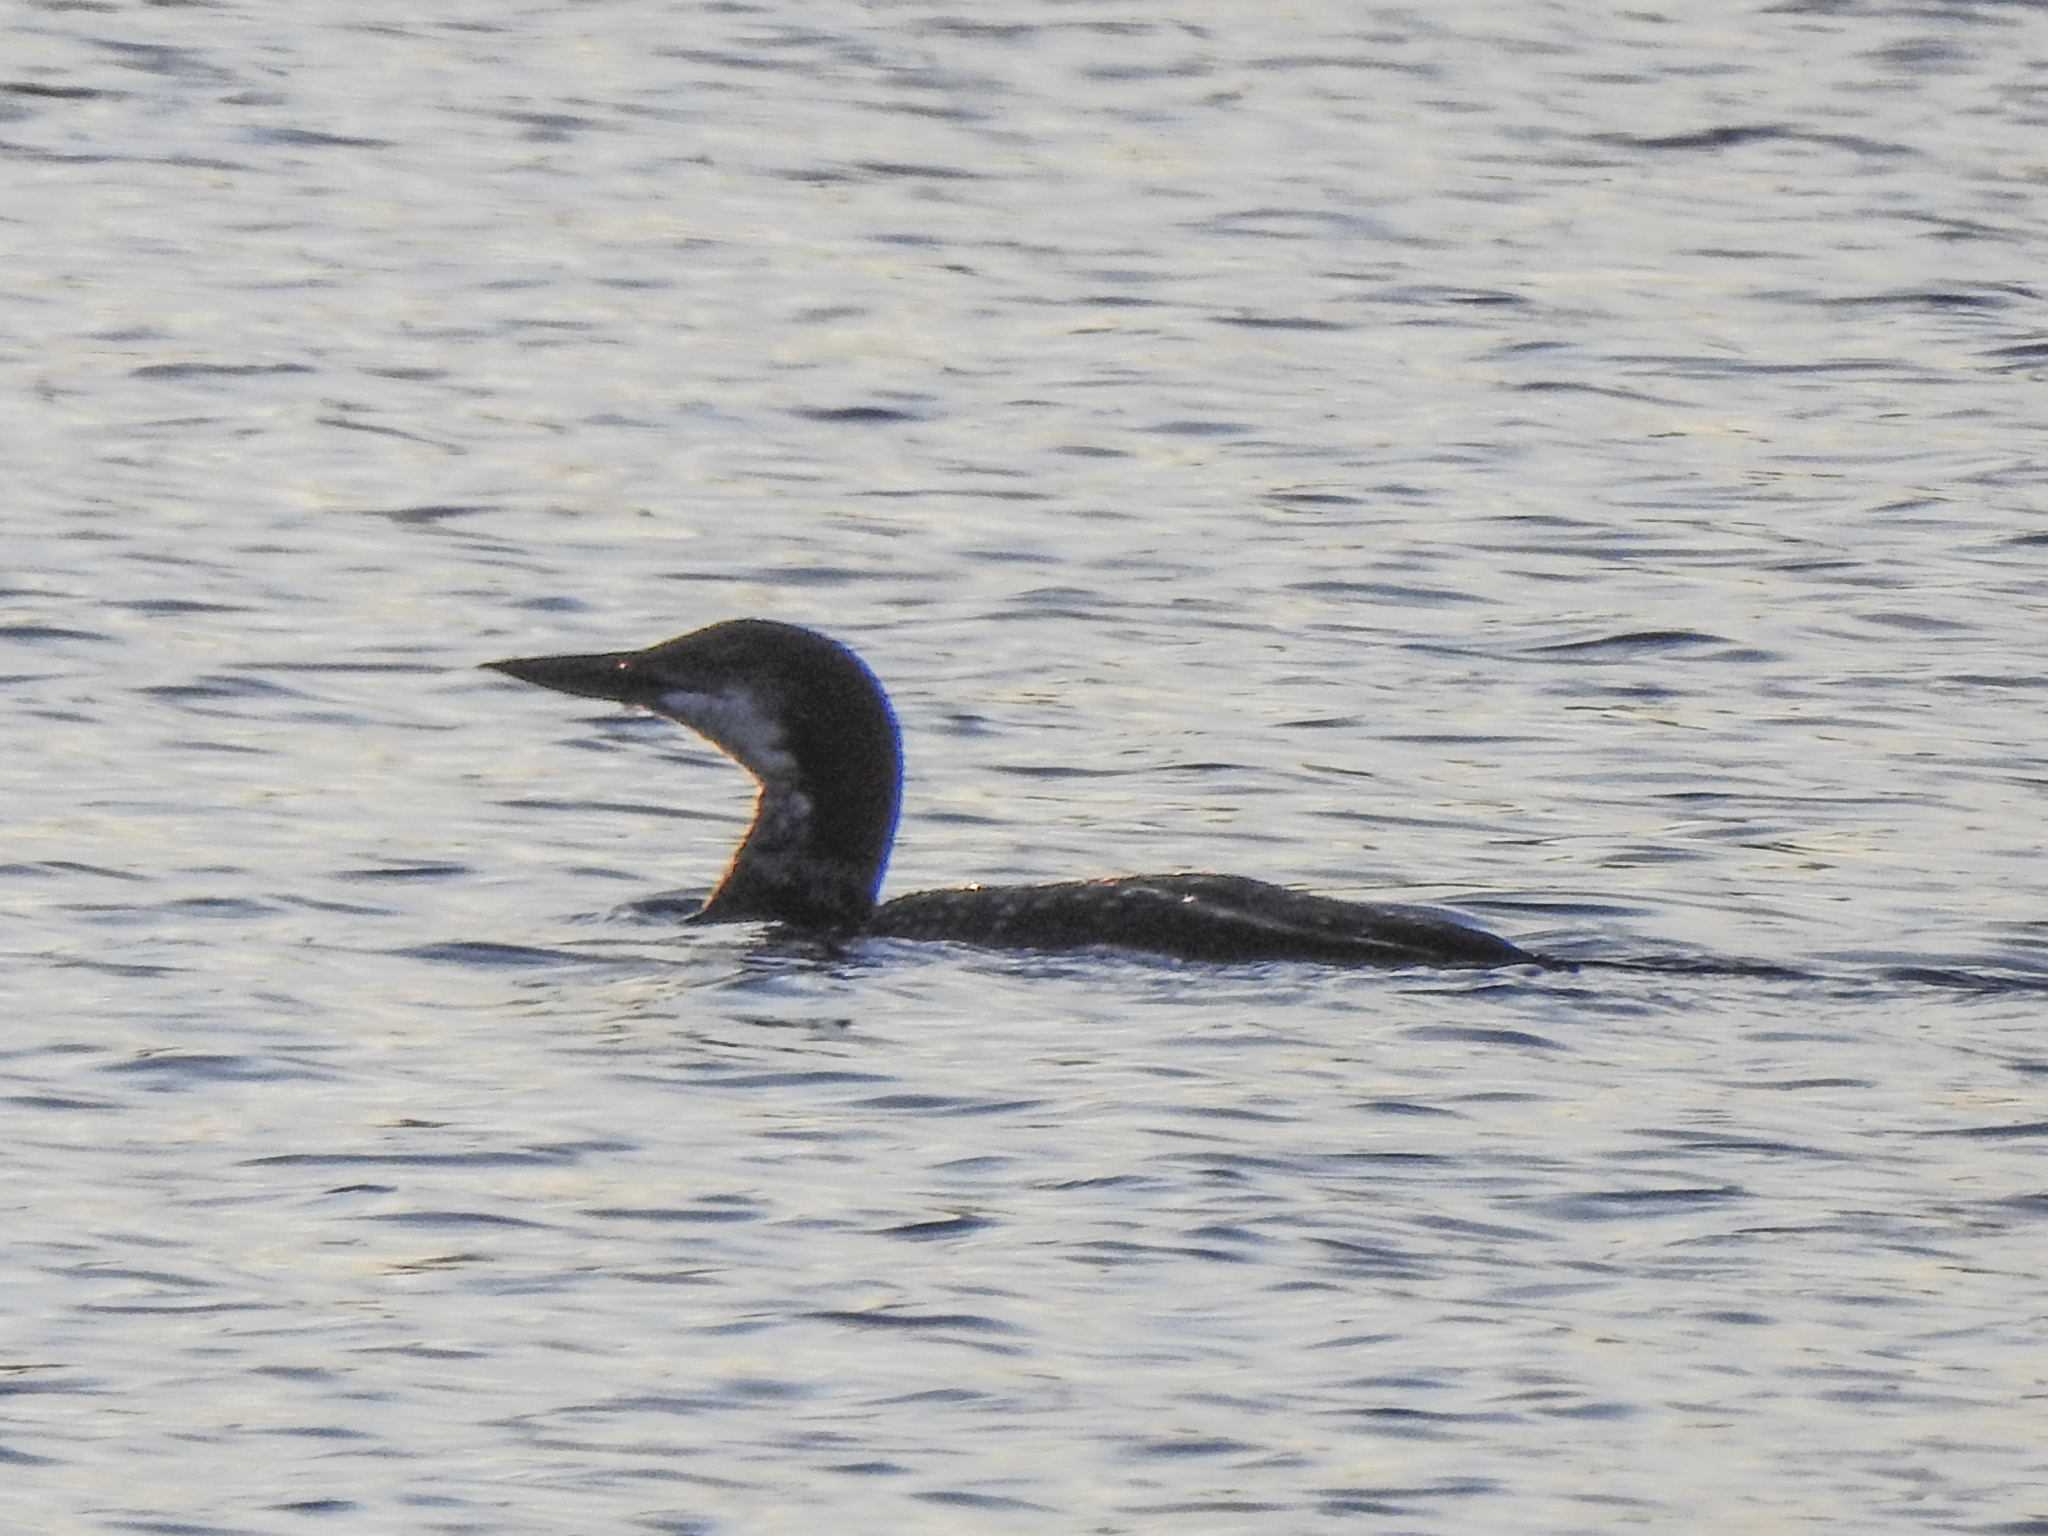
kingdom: Animalia
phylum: Chordata
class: Aves
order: Gaviiformes
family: Gaviidae
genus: Gavia
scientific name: Gavia immer
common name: Common loon
